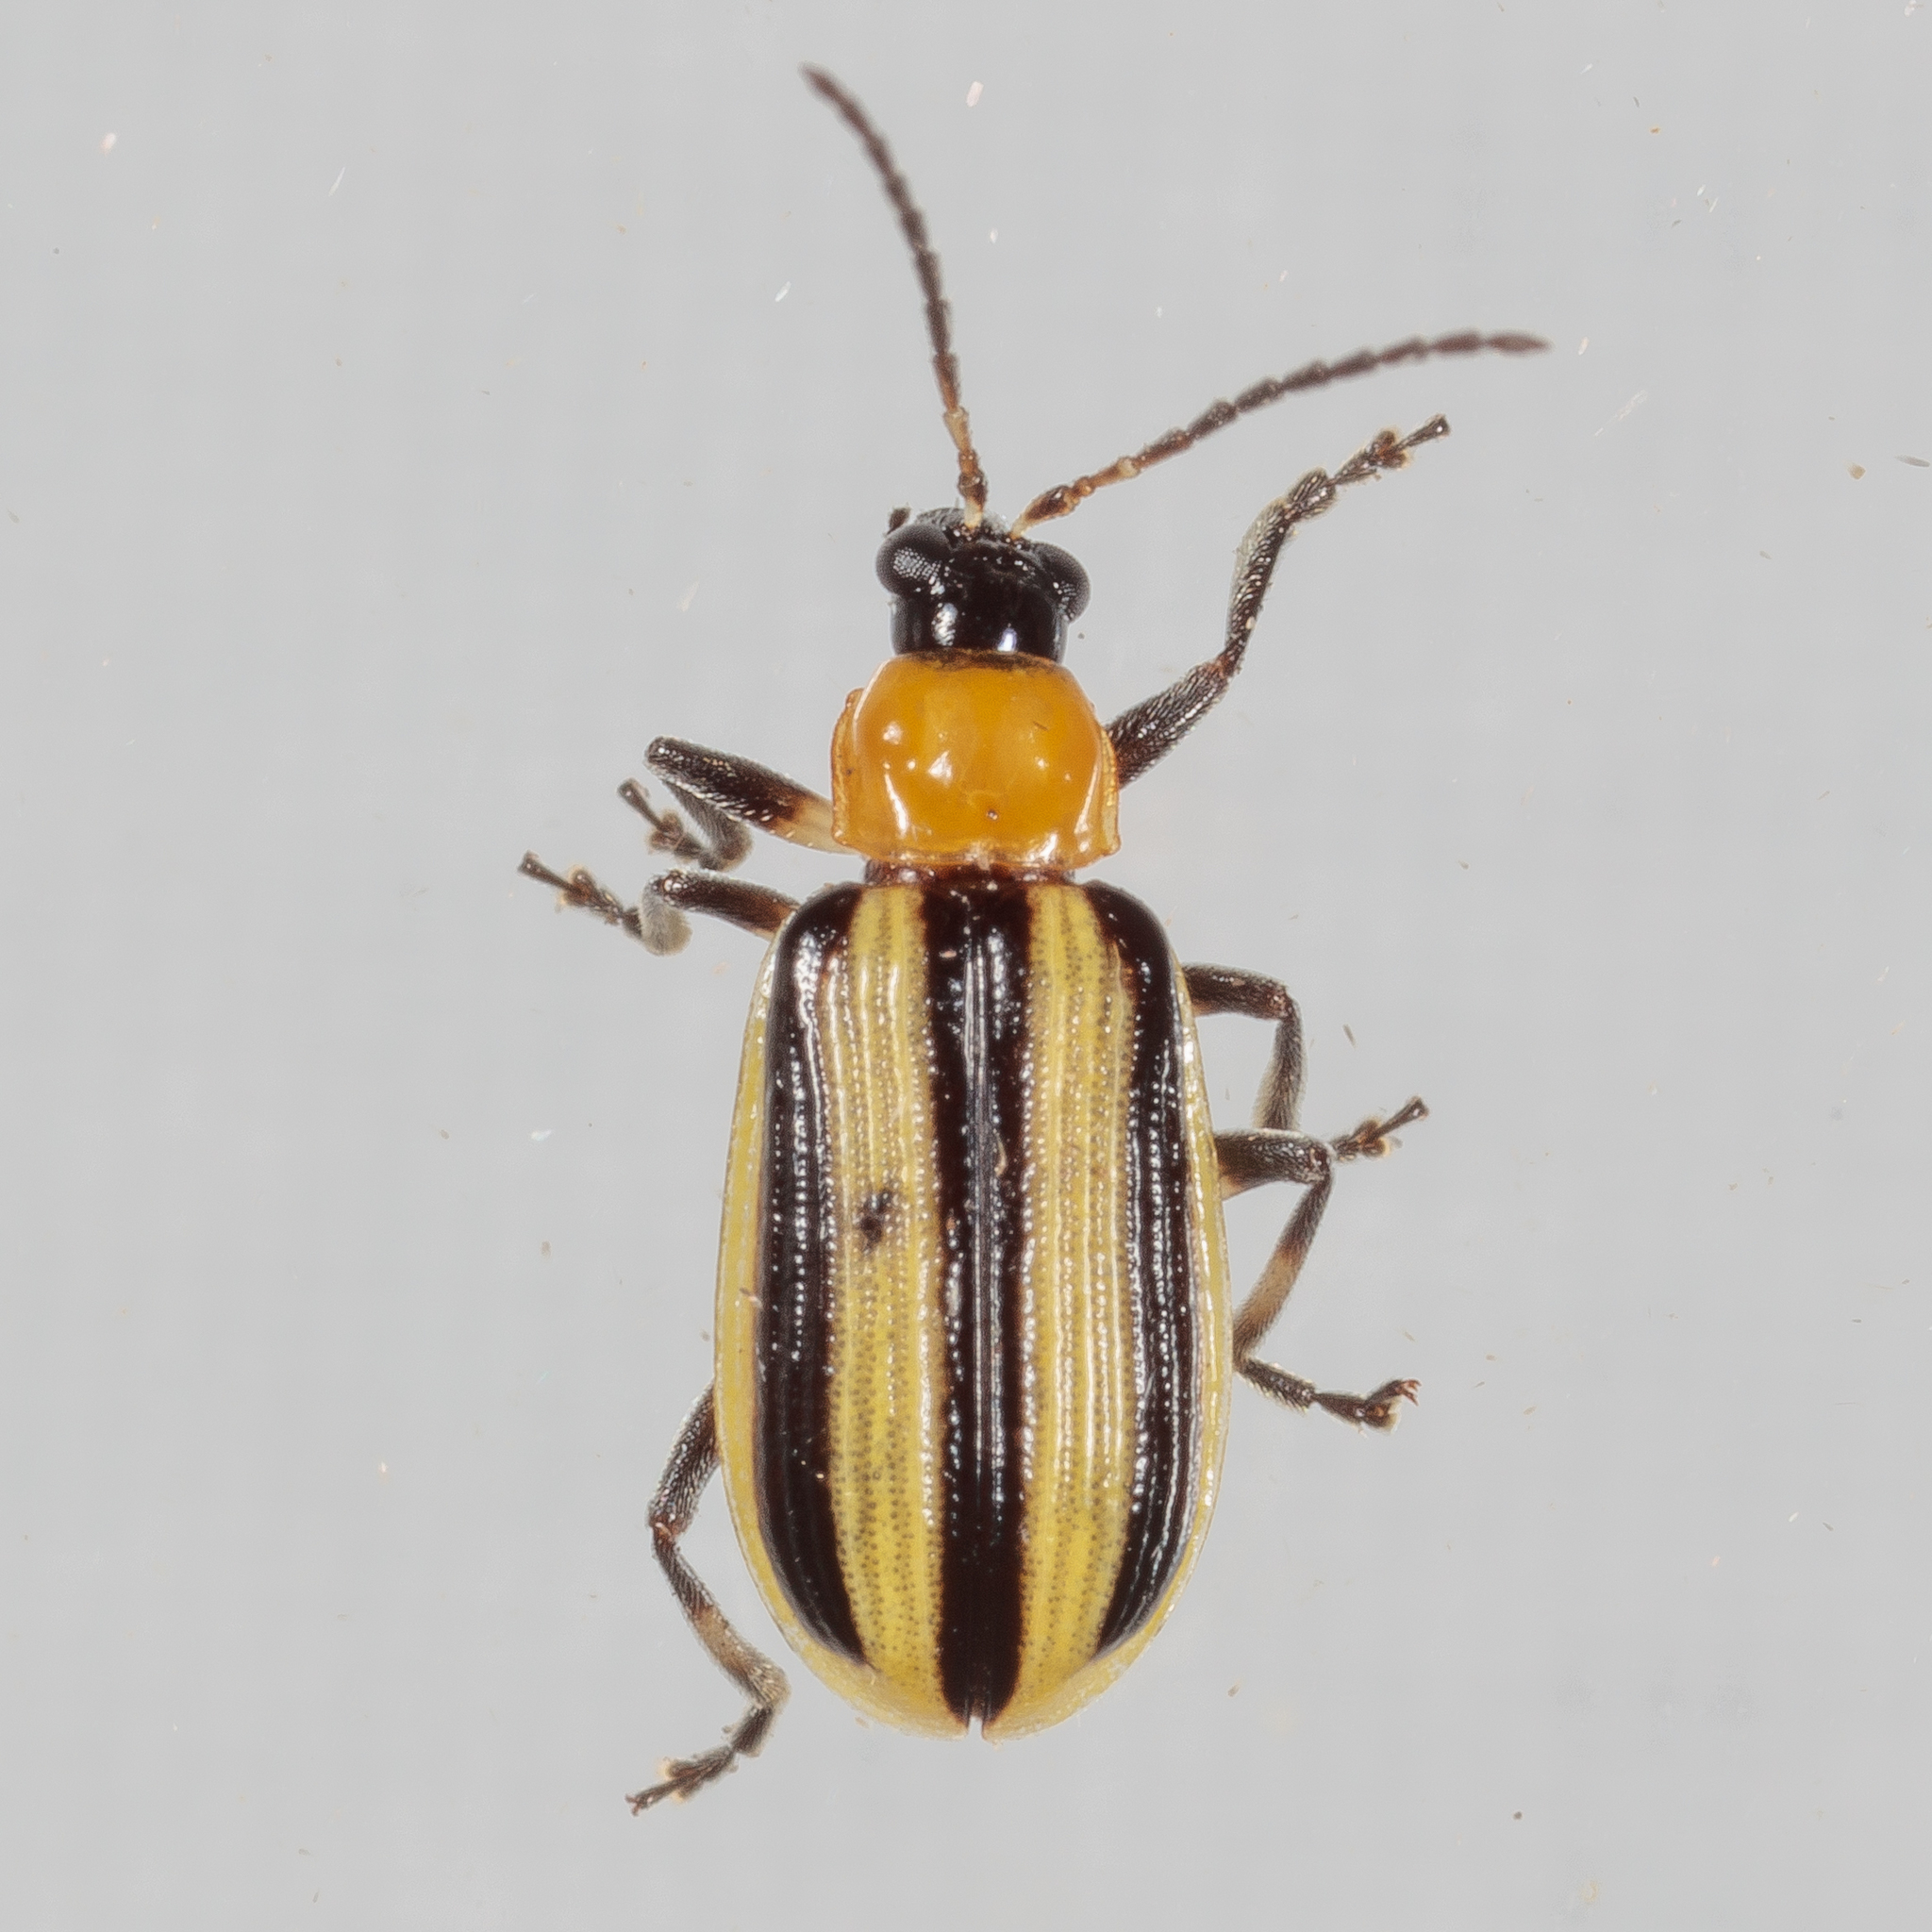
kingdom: Animalia
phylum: Arthropoda
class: Insecta
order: Coleoptera
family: Chrysomelidae
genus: Acalymma
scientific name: Acalymma vittatum
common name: Striped cucumber beetle
